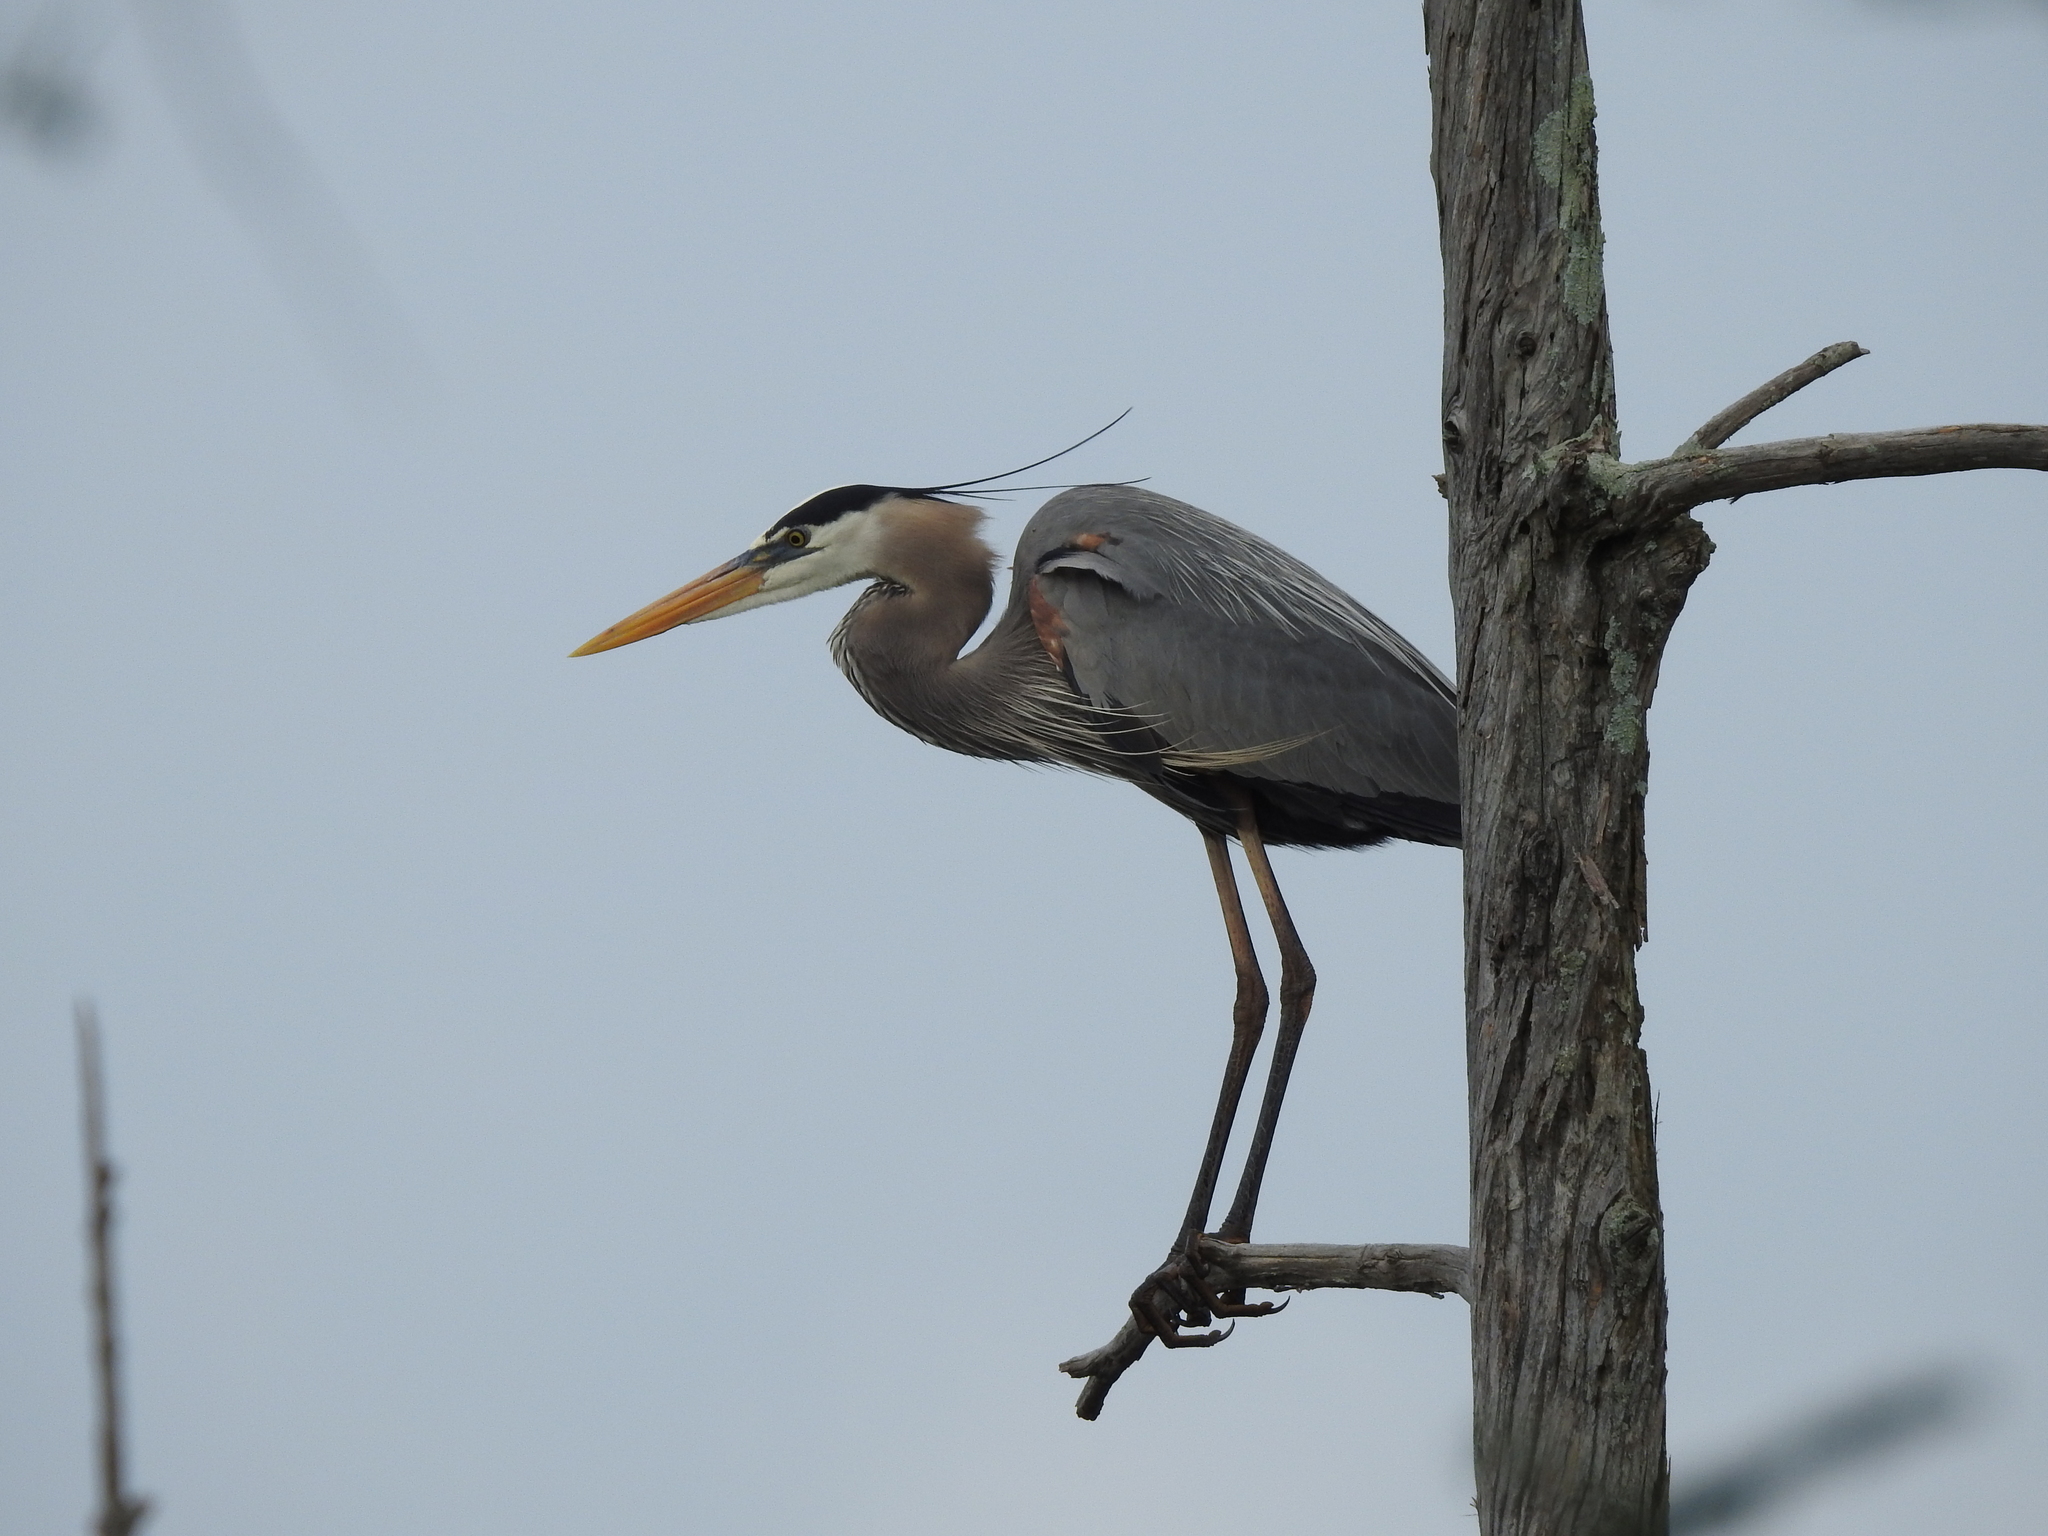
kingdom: Animalia
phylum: Chordata
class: Aves
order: Pelecaniformes
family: Ardeidae
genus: Ardea
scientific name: Ardea herodias
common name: Great blue heron
